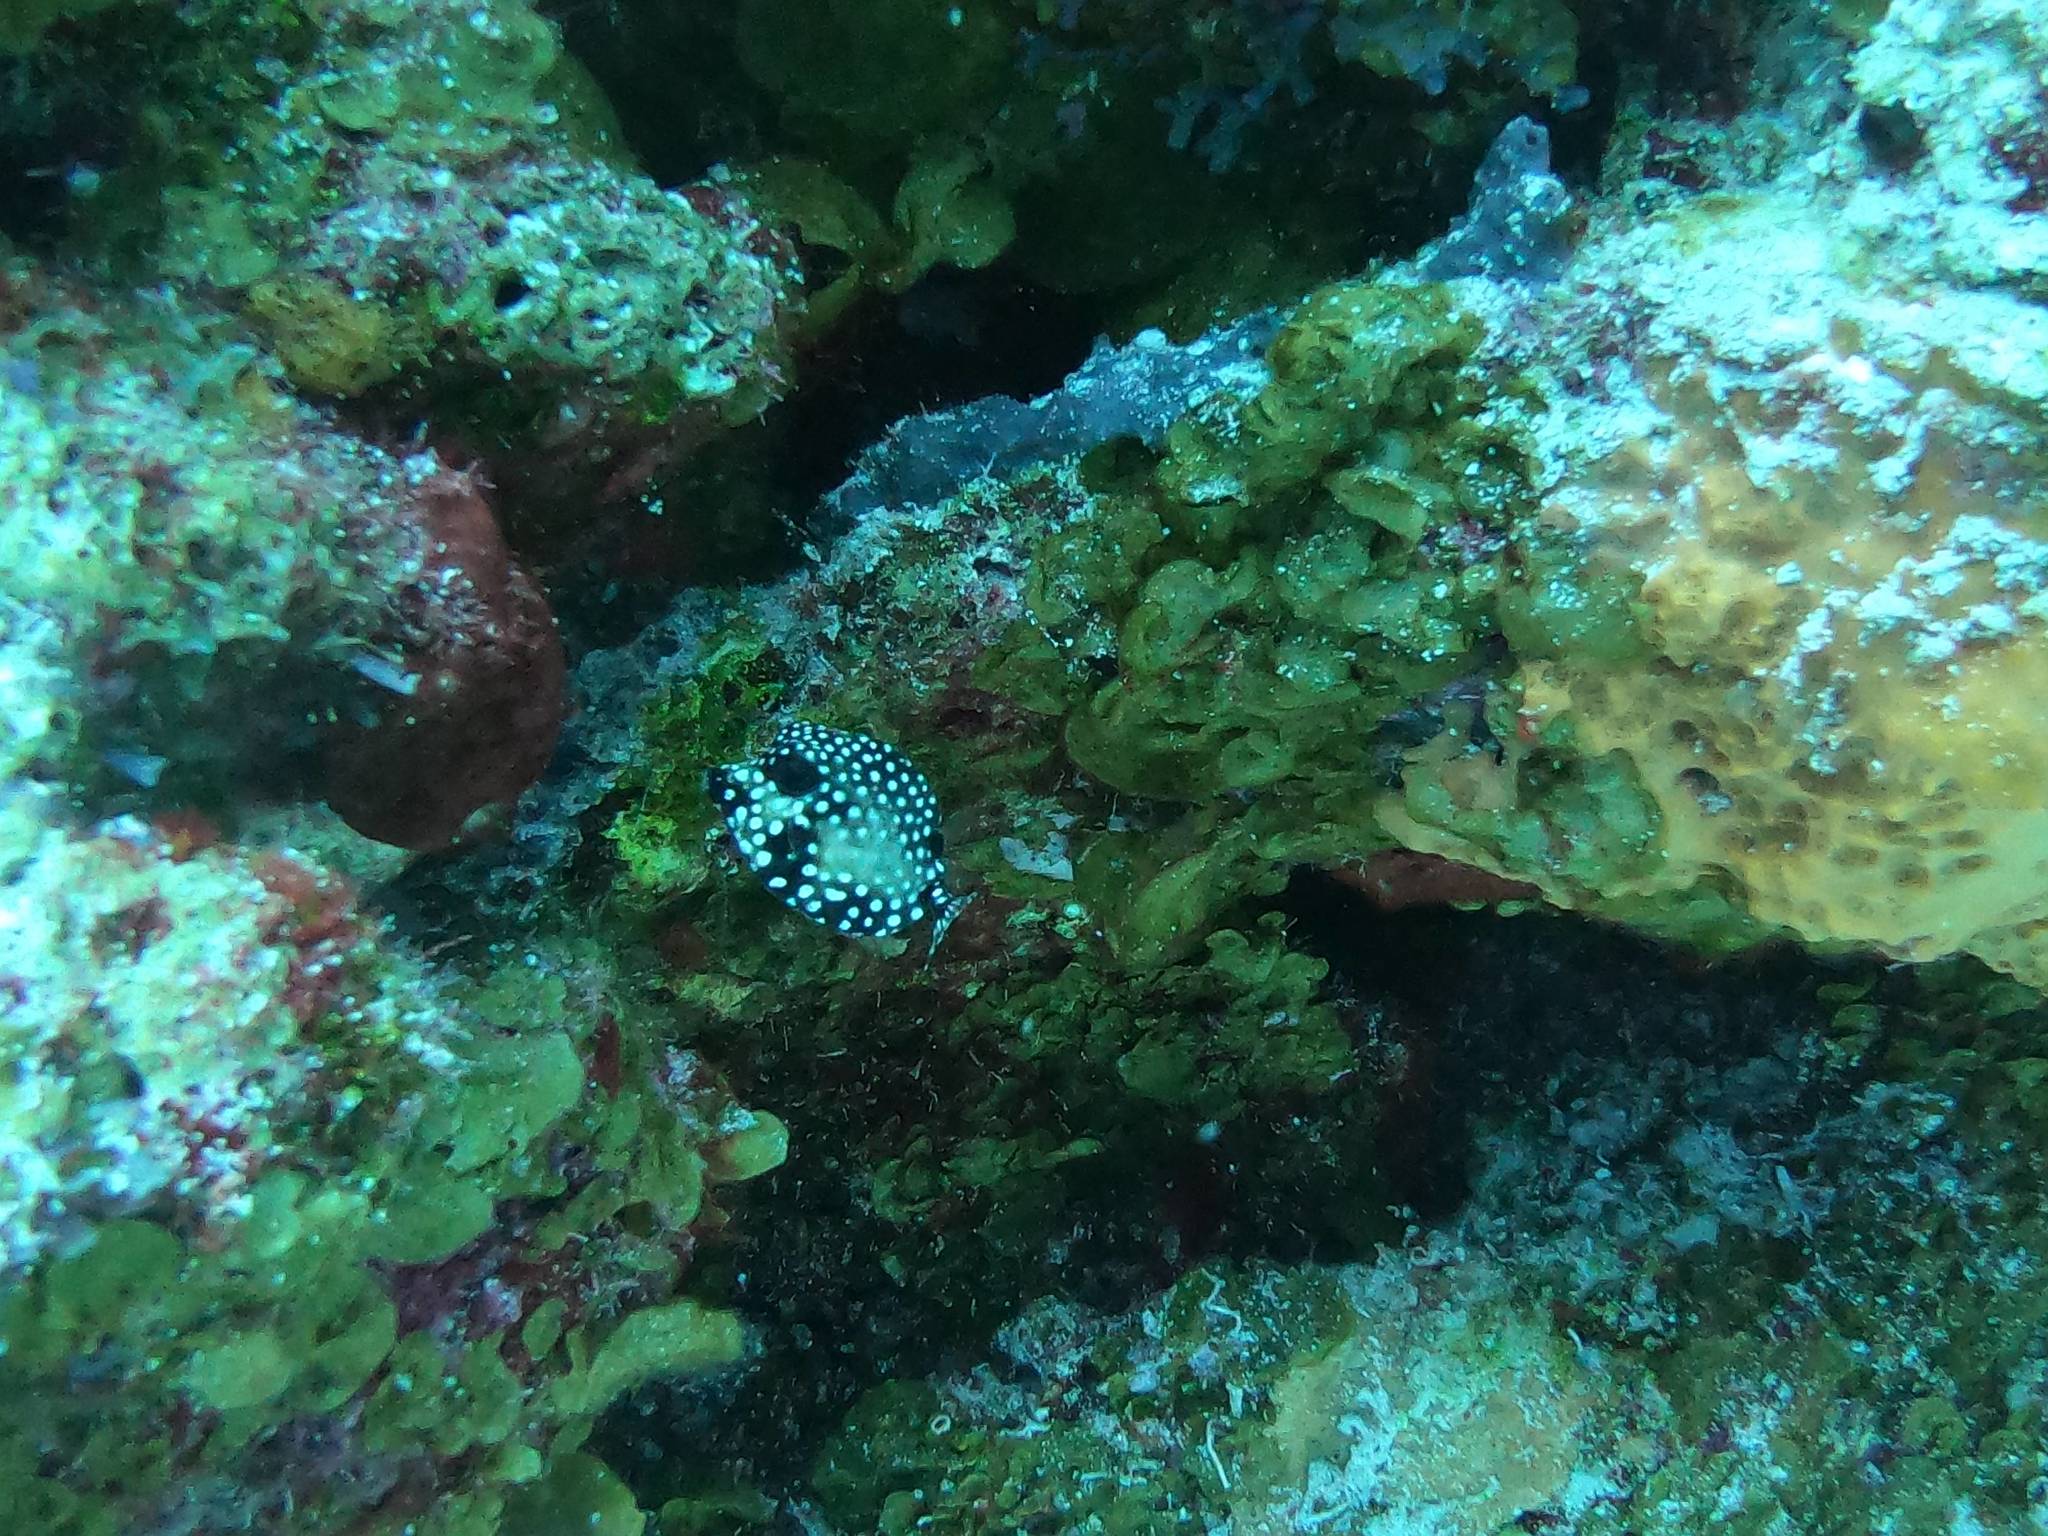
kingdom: Animalia
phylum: Chordata
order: Tetraodontiformes
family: Ostraciidae
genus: Lactophrys
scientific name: Lactophrys triqueter
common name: Smooth trunkfish
